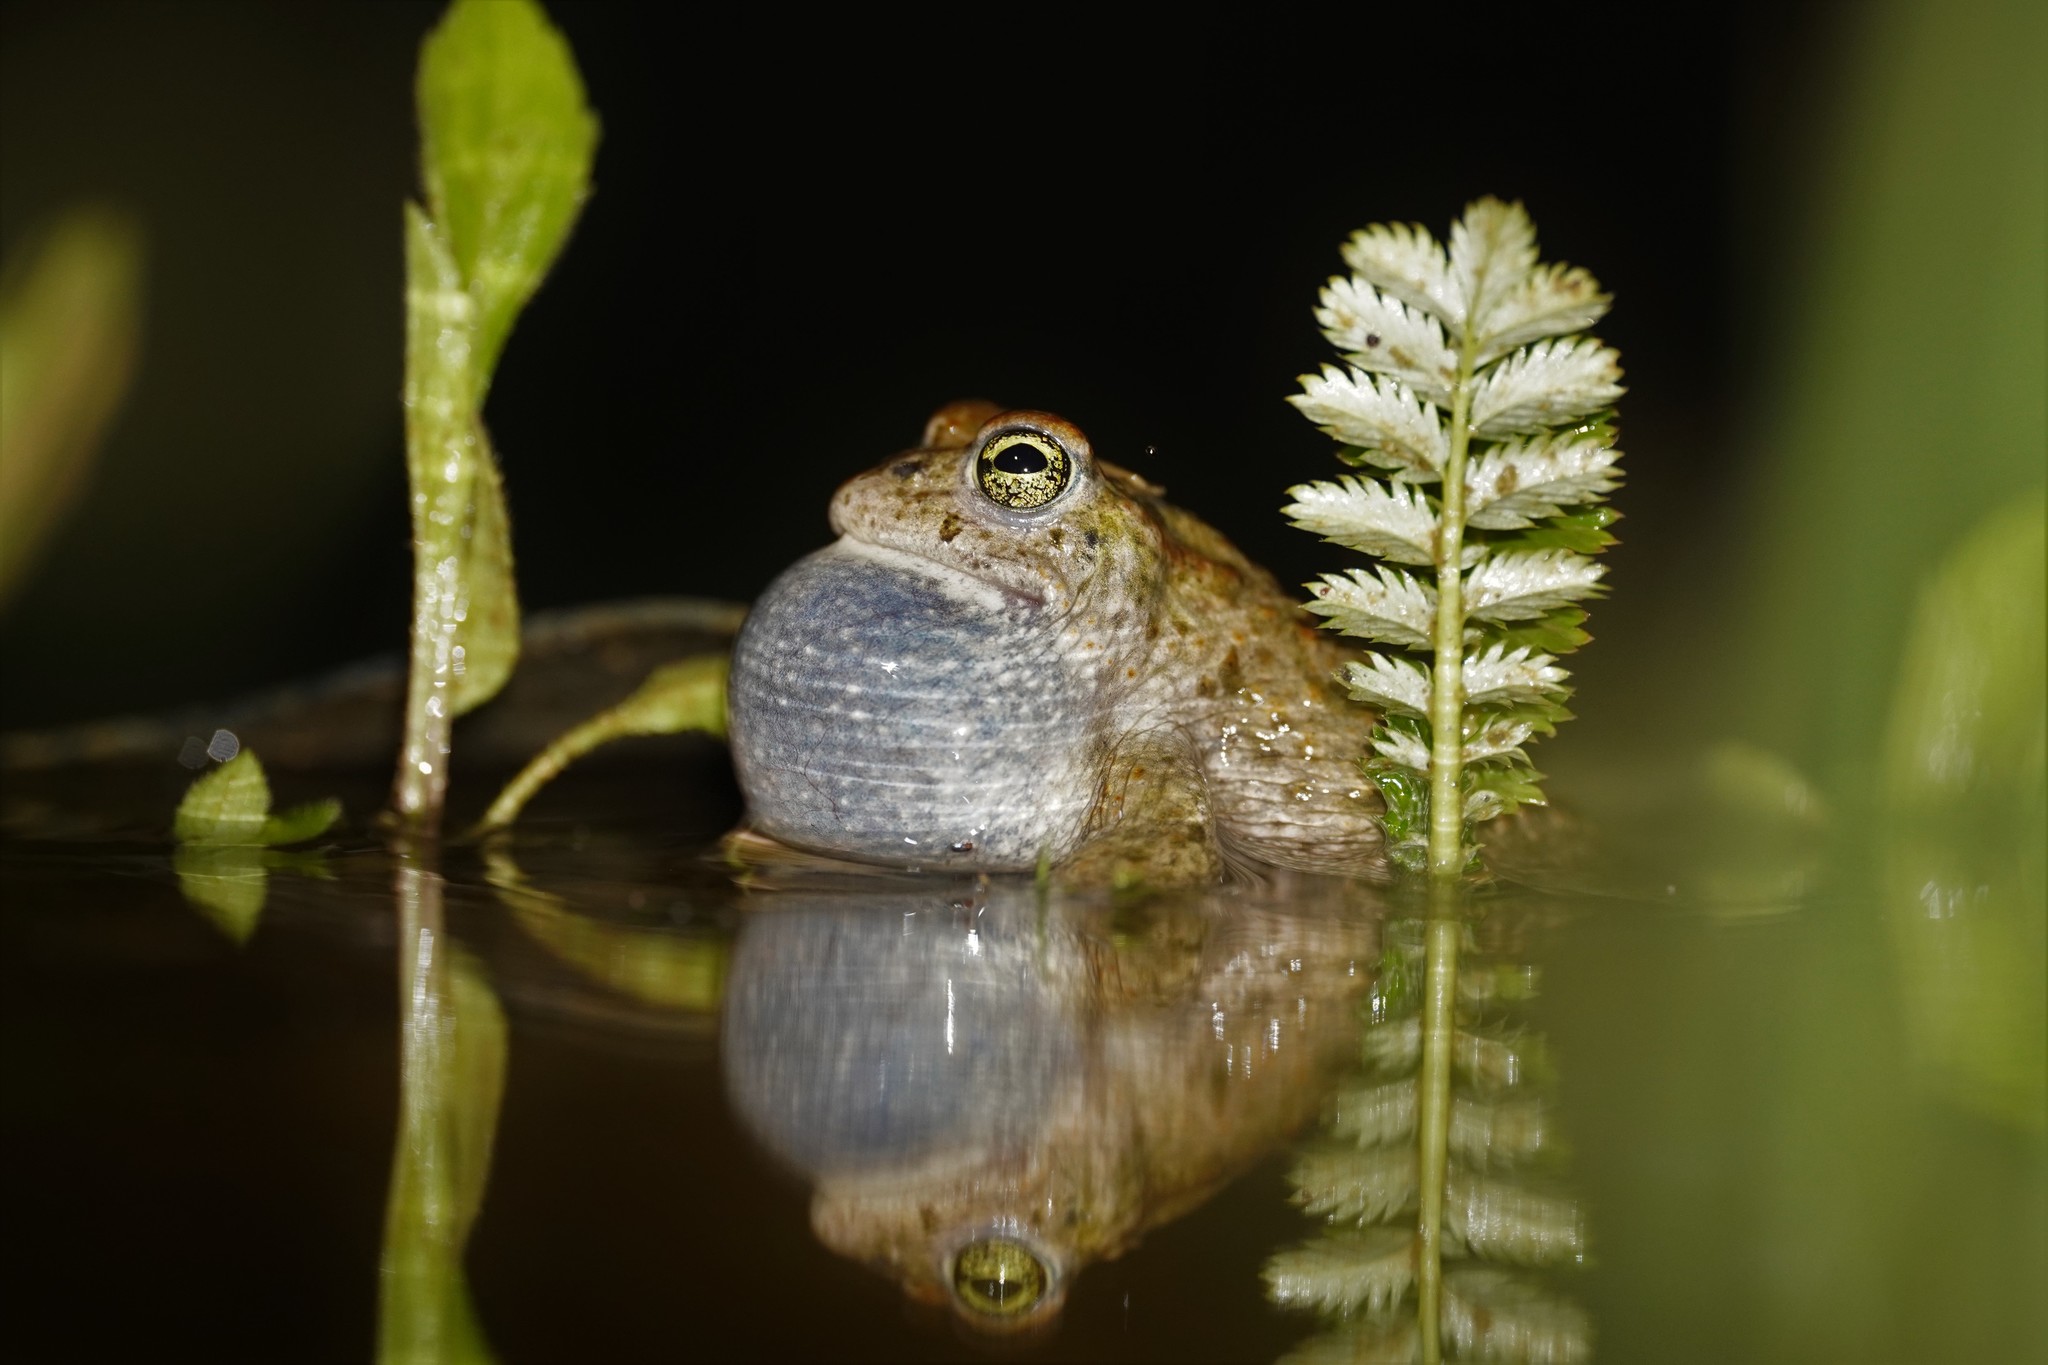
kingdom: Animalia
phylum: Chordata
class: Amphibia
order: Anura
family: Bufonidae
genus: Epidalea
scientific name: Epidalea calamita
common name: Natterjack toad
